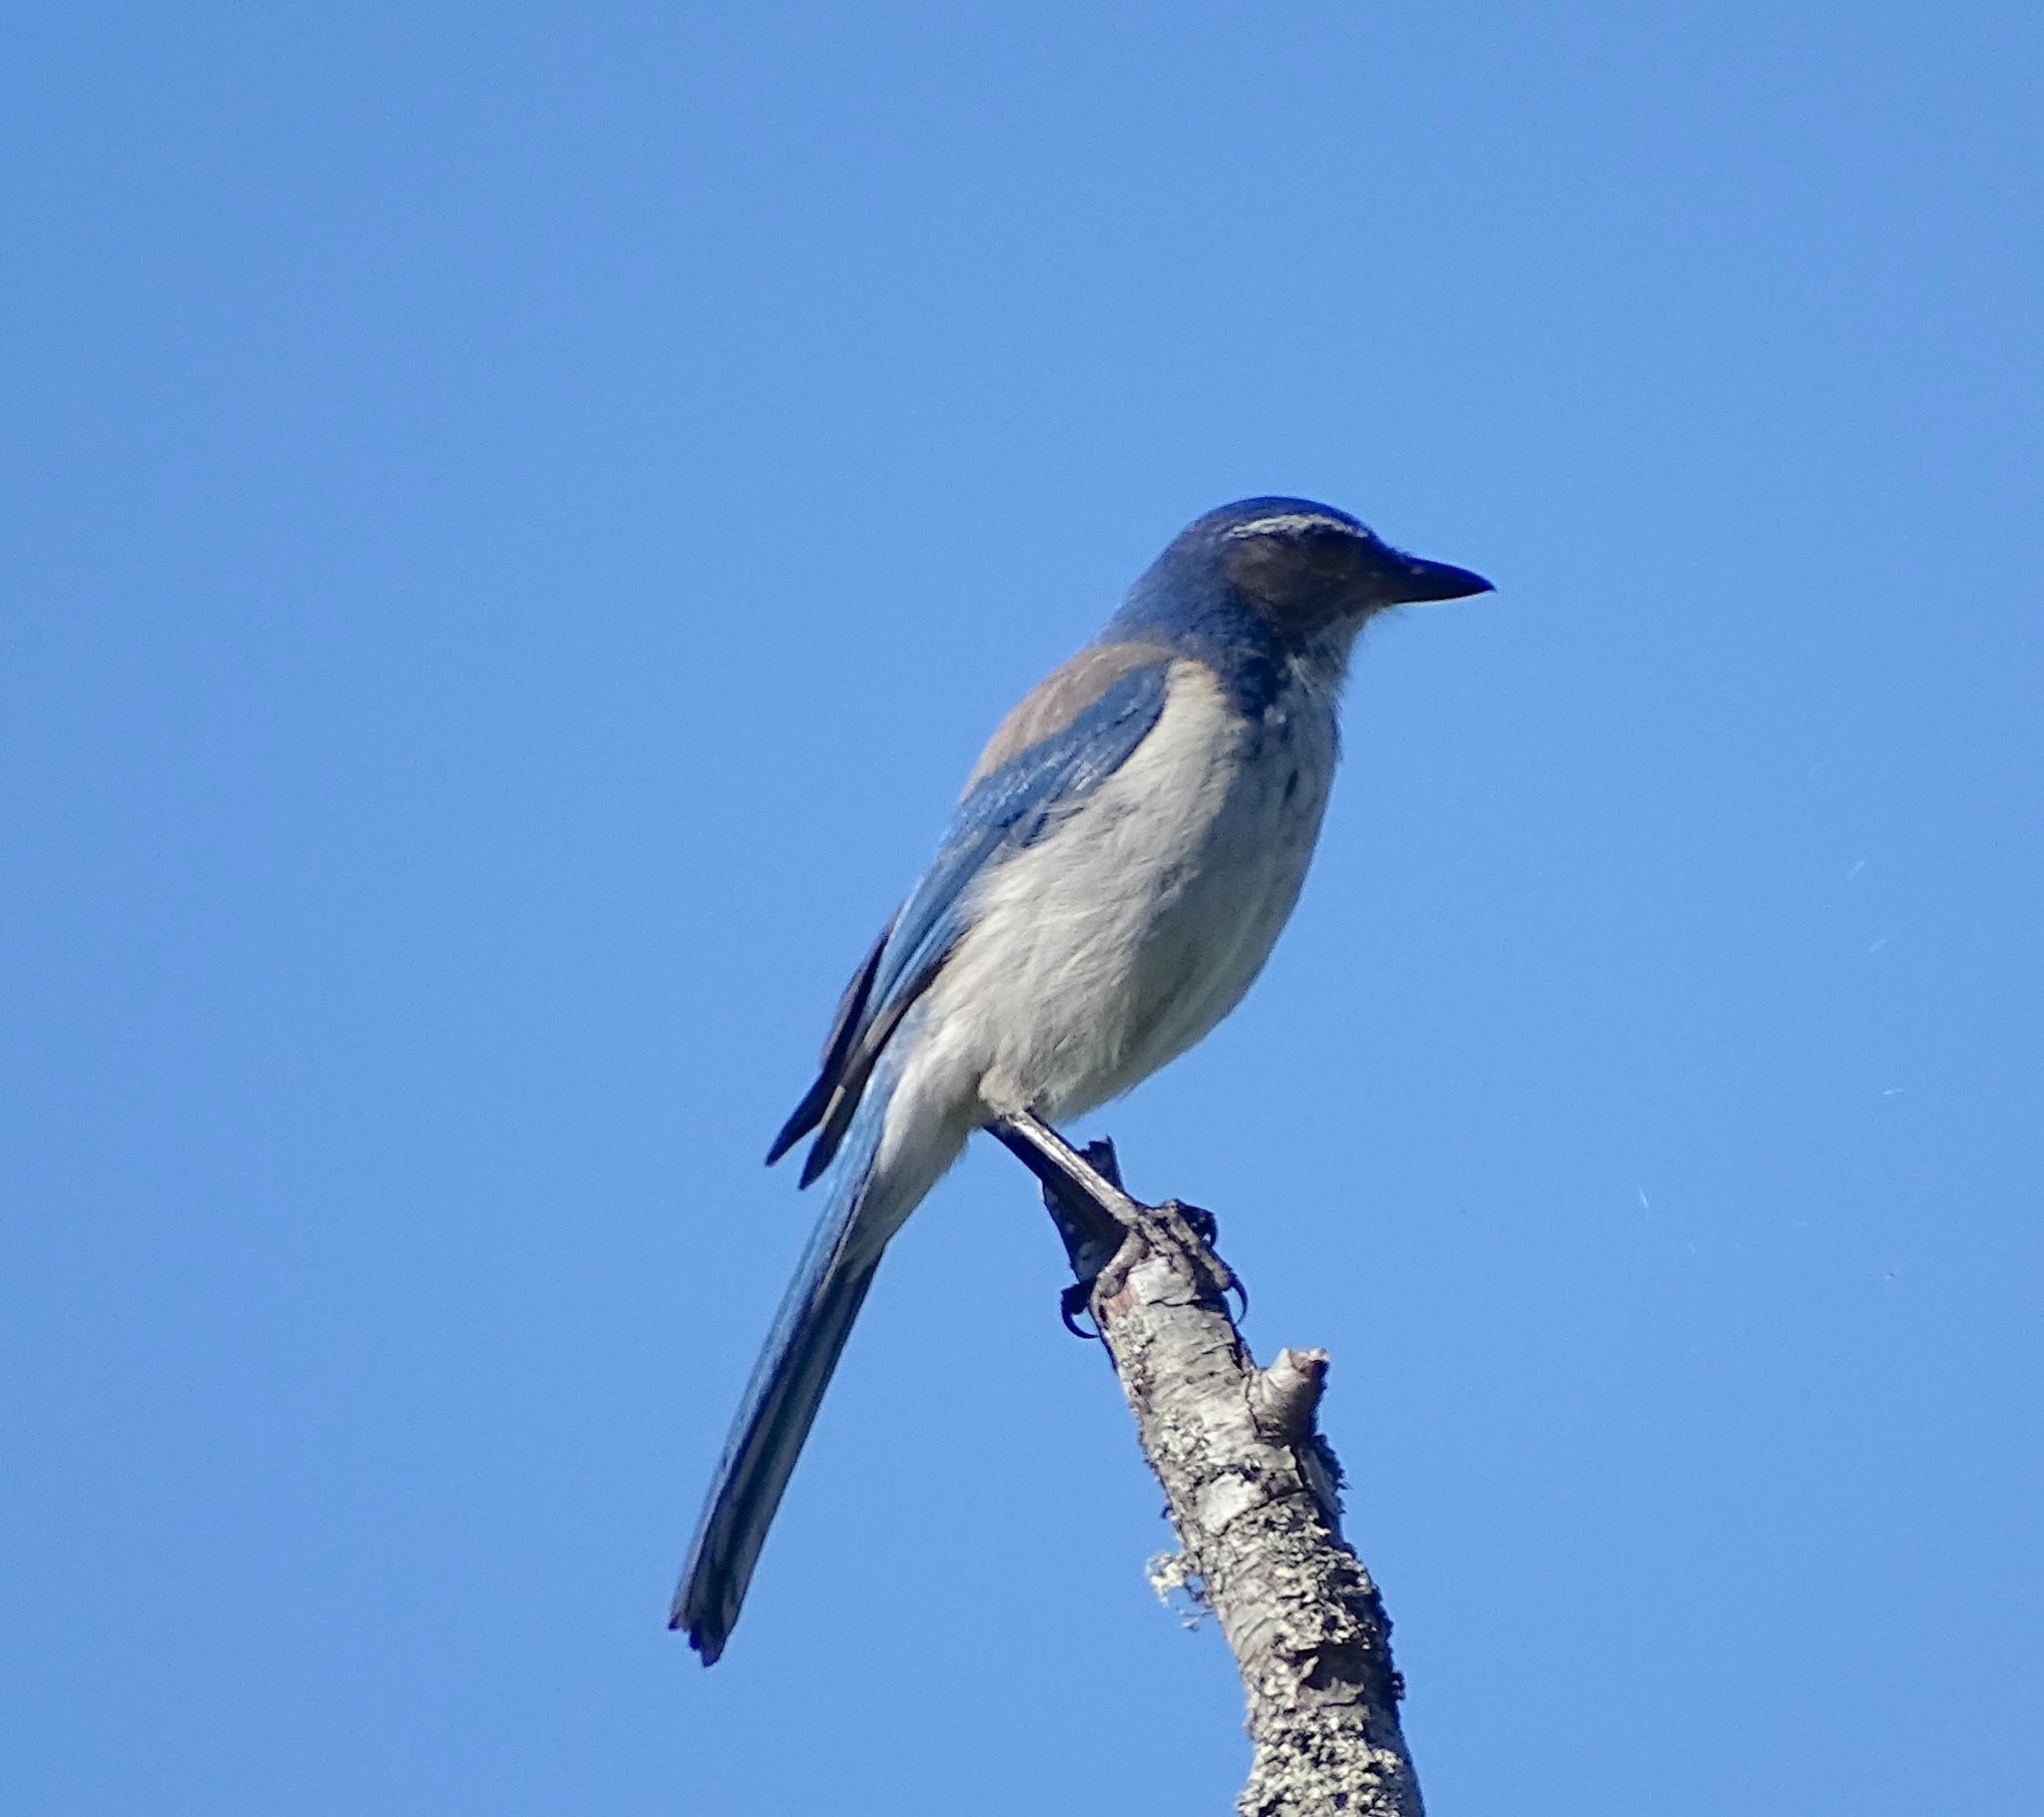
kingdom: Animalia
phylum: Chordata
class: Aves
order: Passeriformes
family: Corvidae
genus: Aphelocoma
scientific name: Aphelocoma californica
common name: California scrub-jay
